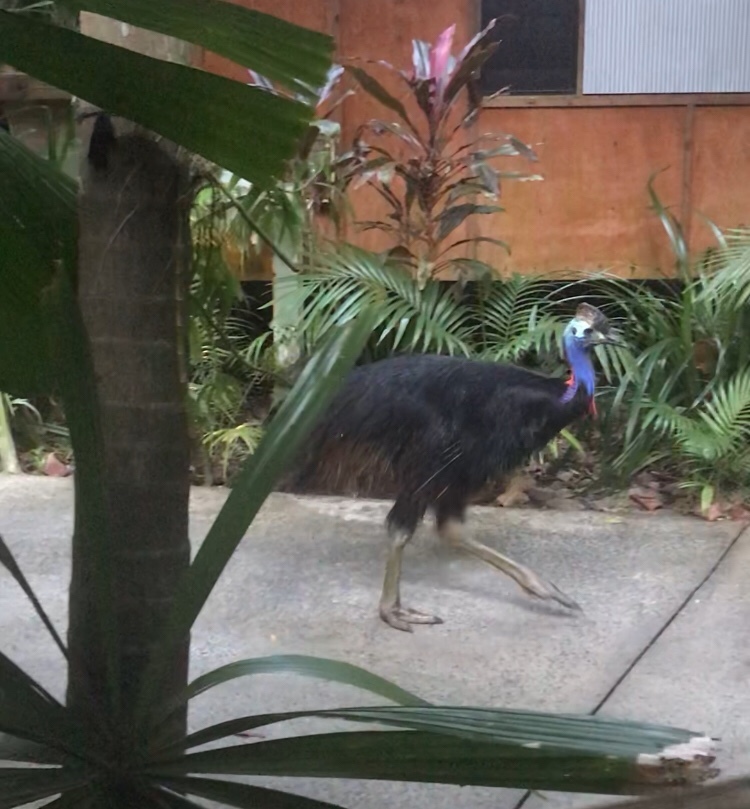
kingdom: Animalia
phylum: Chordata
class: Aves
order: Casuariiformes
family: Casuariidae
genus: Casuarius
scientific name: Casuarius casuarius
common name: Southern cassowary
